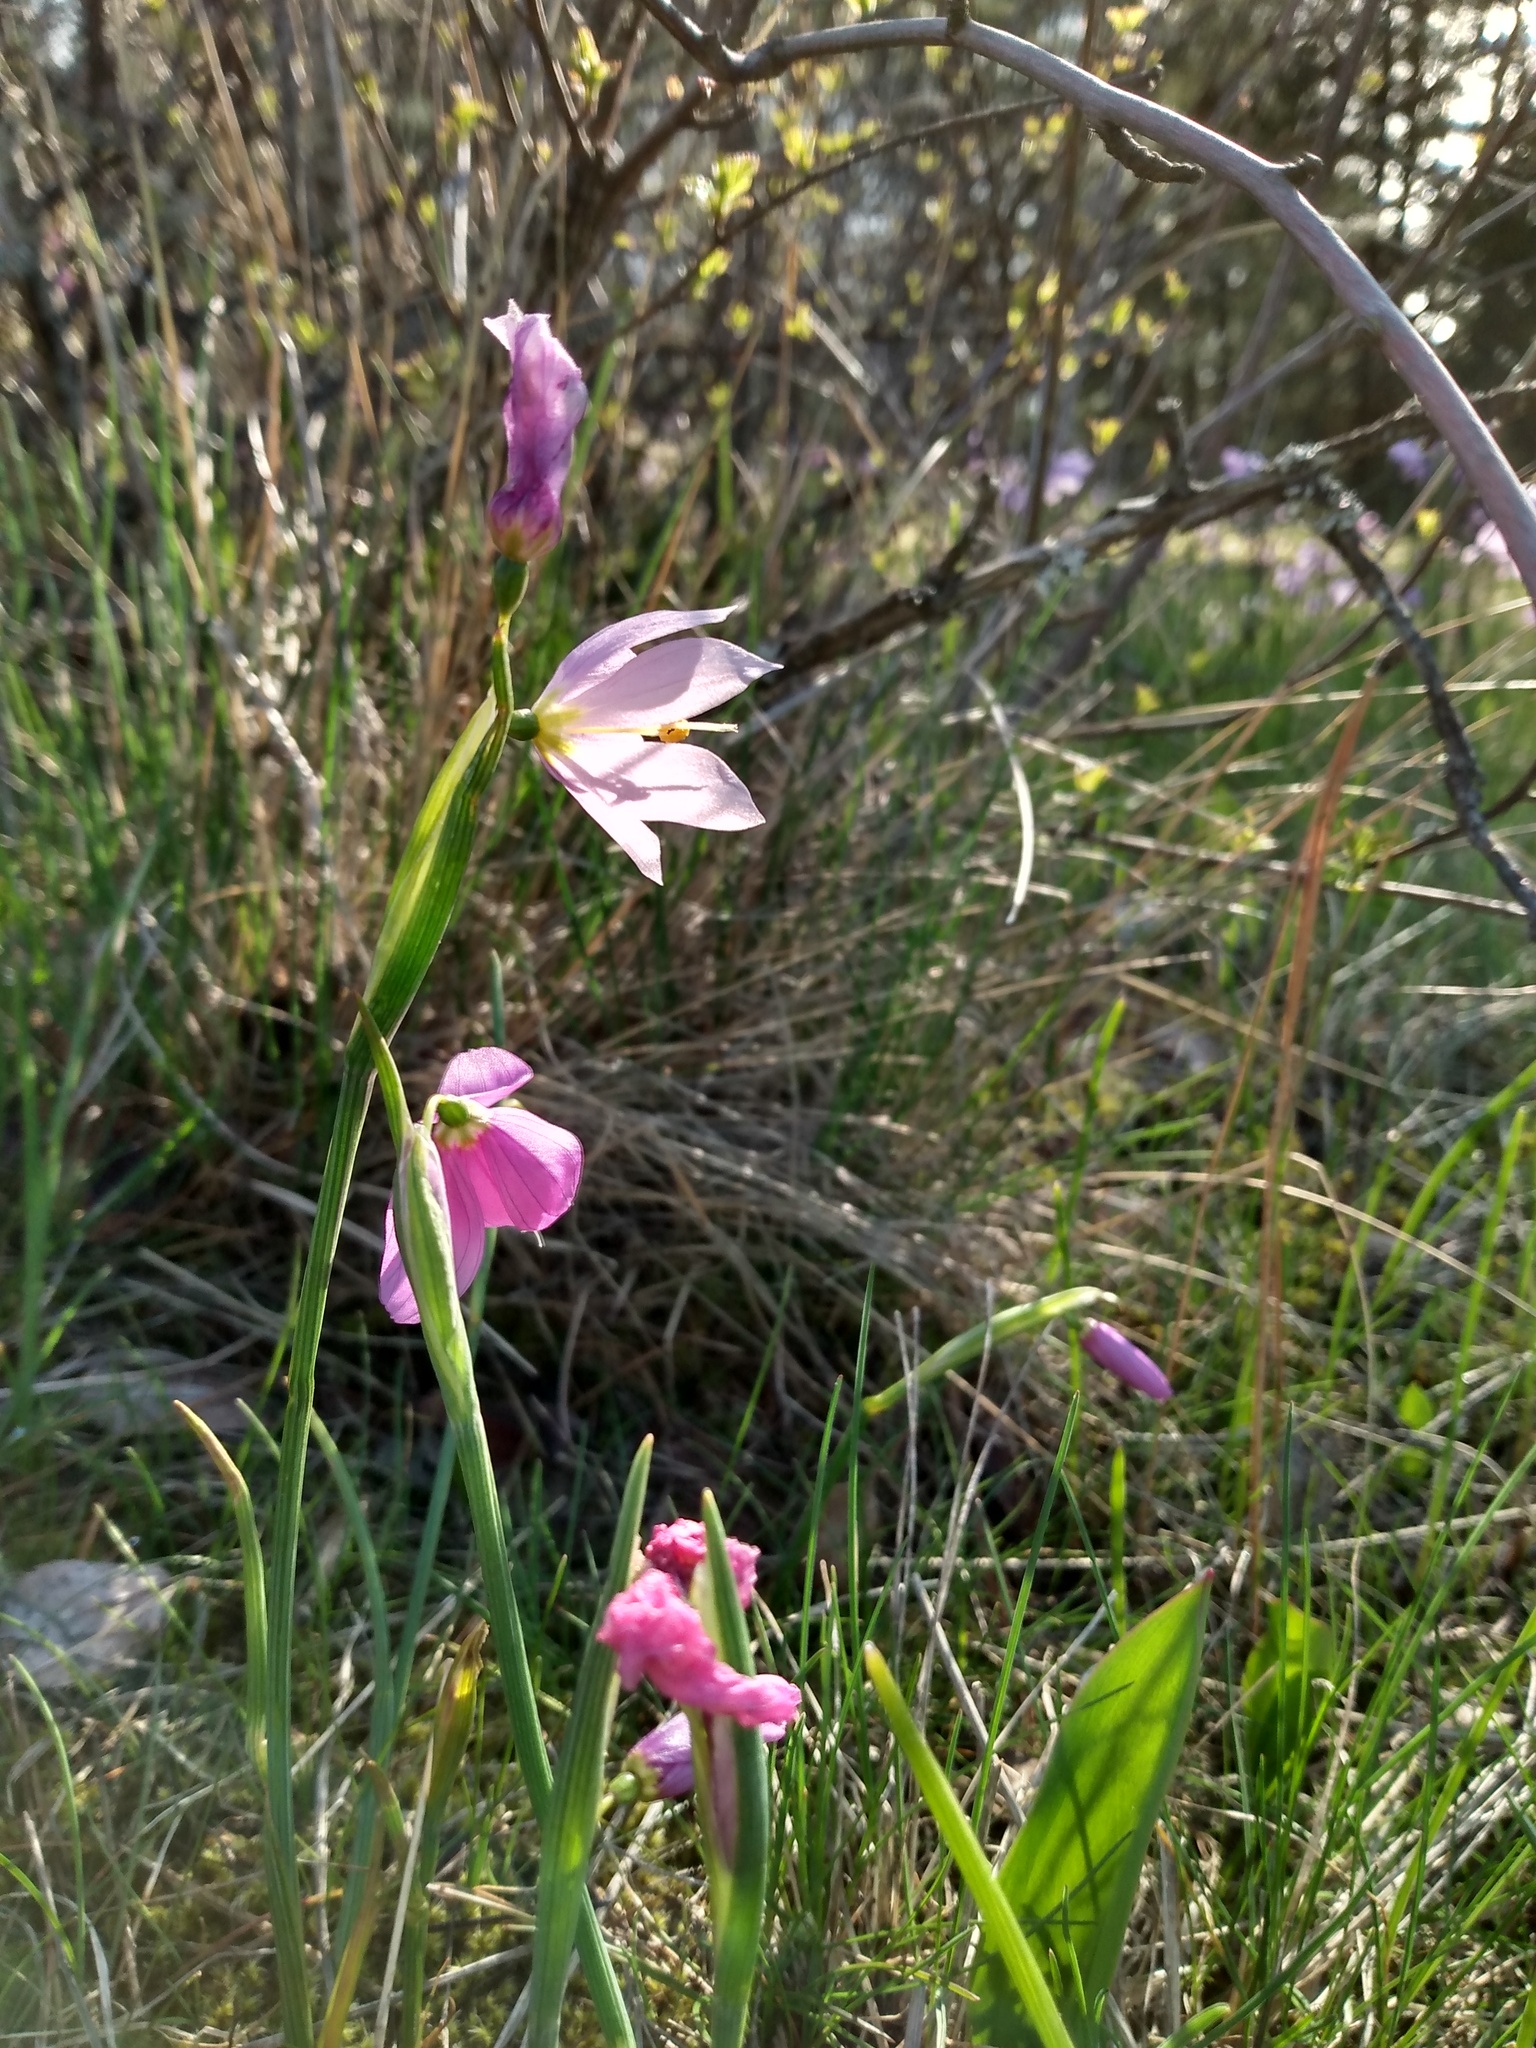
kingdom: Plantae
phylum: Tracheophyta
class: Liliopsida
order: Asparagales
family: Iridaceae
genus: Olsynium
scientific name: Olsynium douglasii
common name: Douglas' grasswidow
